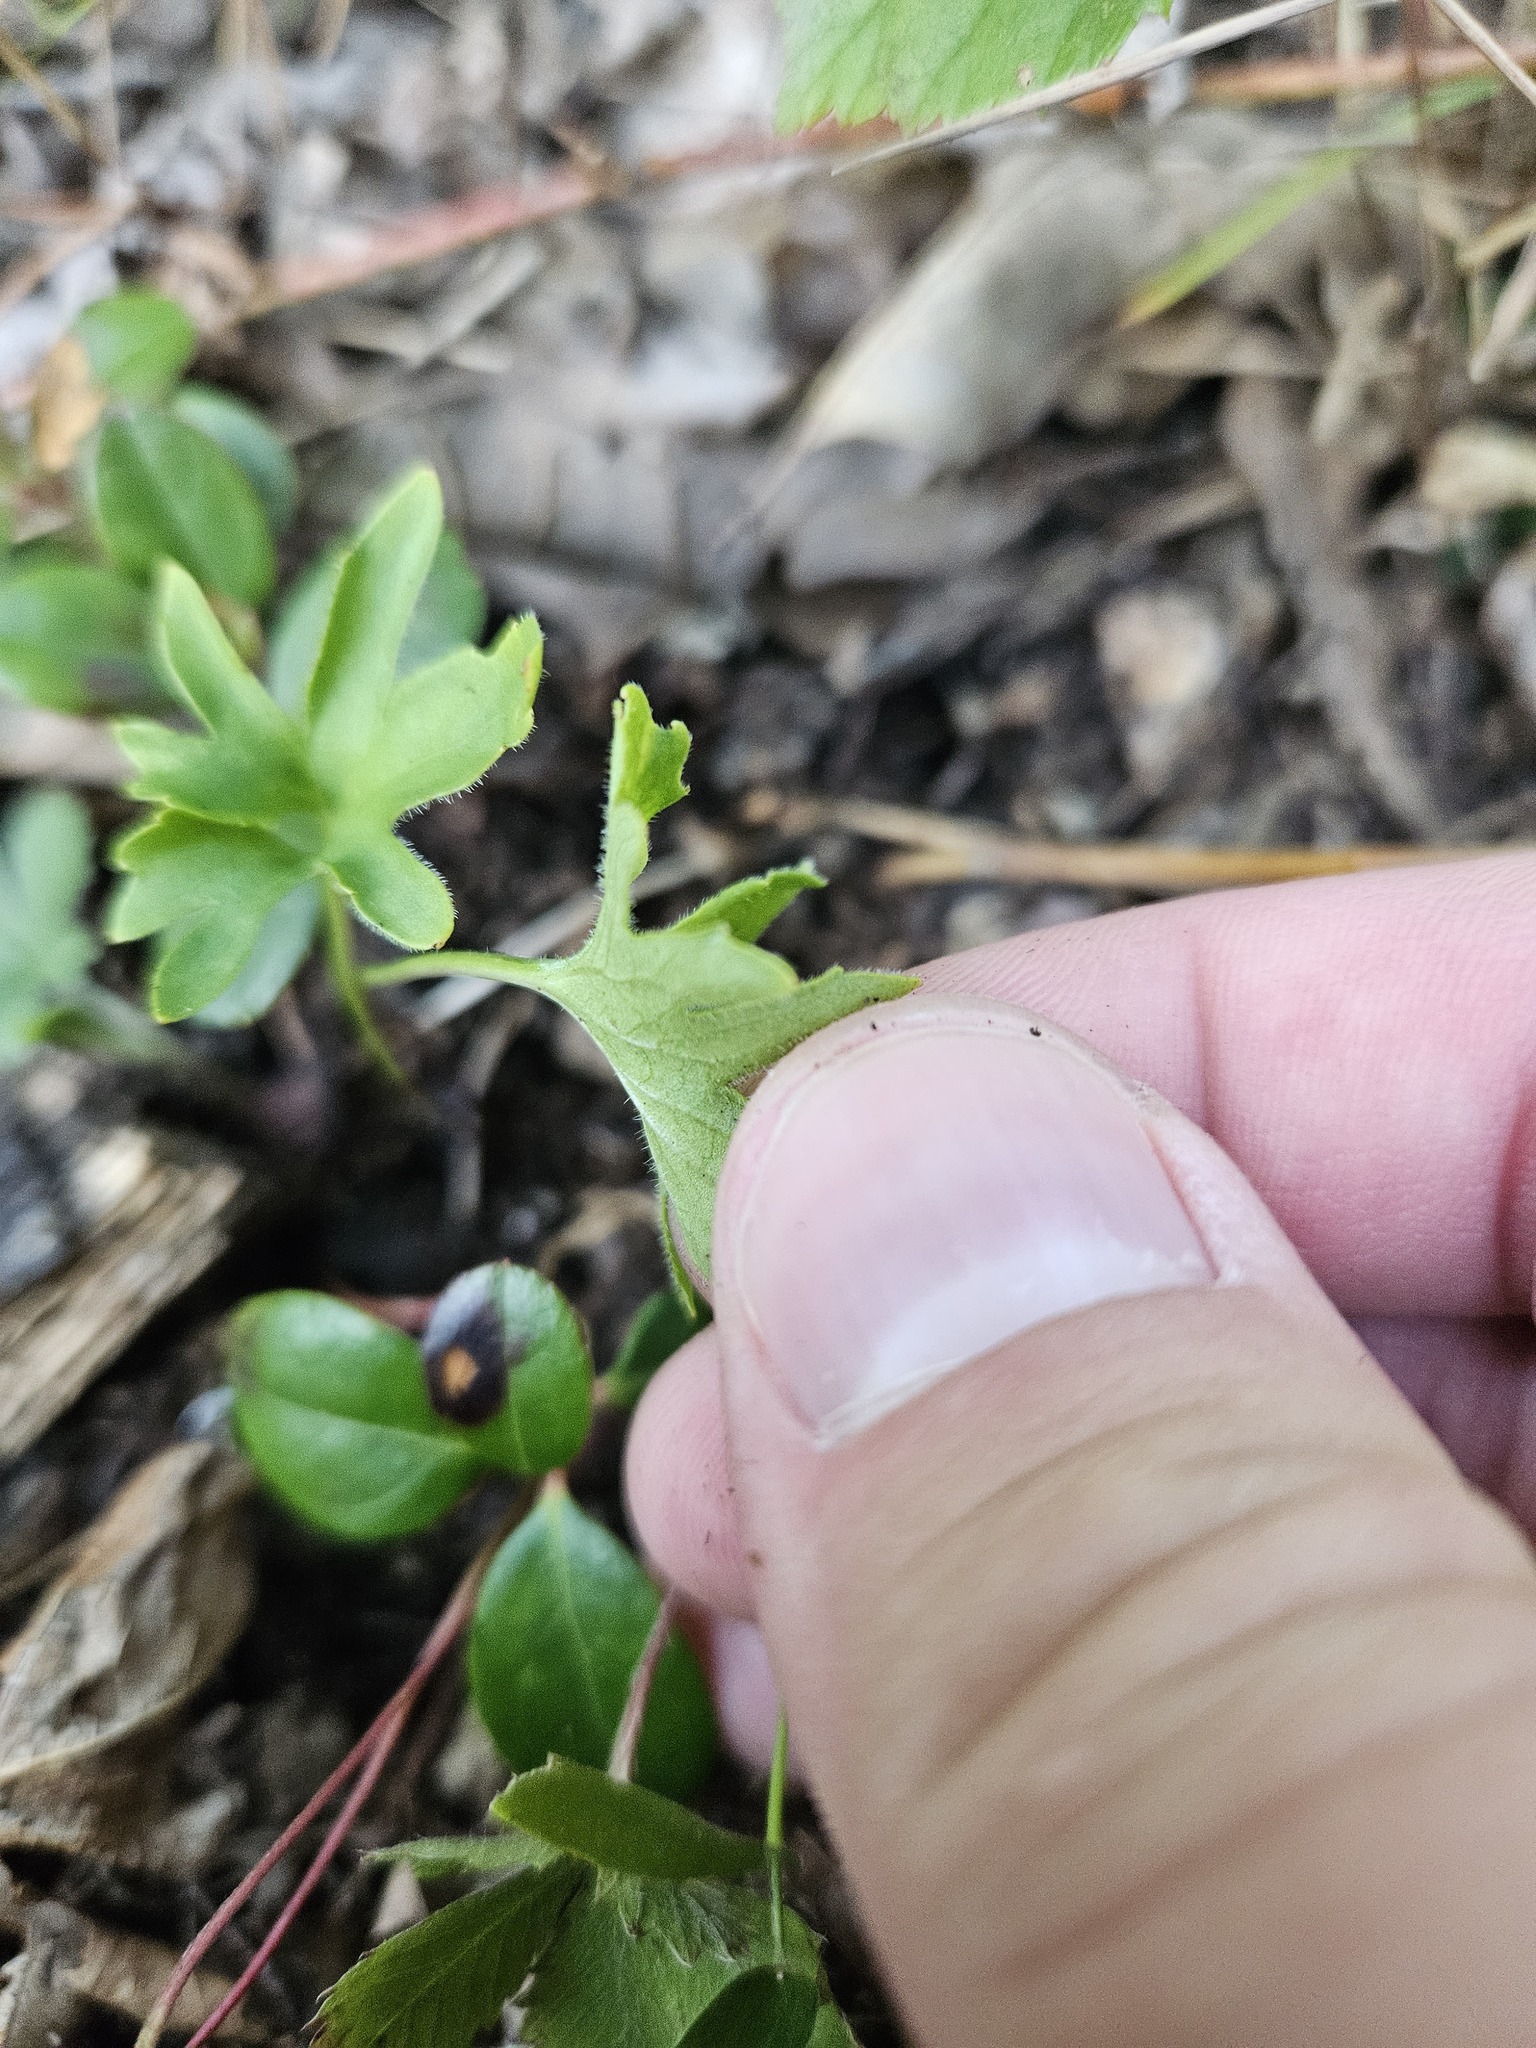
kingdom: Plantae
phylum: Tracheophyta
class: Magnoliopsida
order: Malpighiales
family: Violaceae
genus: Viola
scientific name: Viola subsinuata
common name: Wood violet
